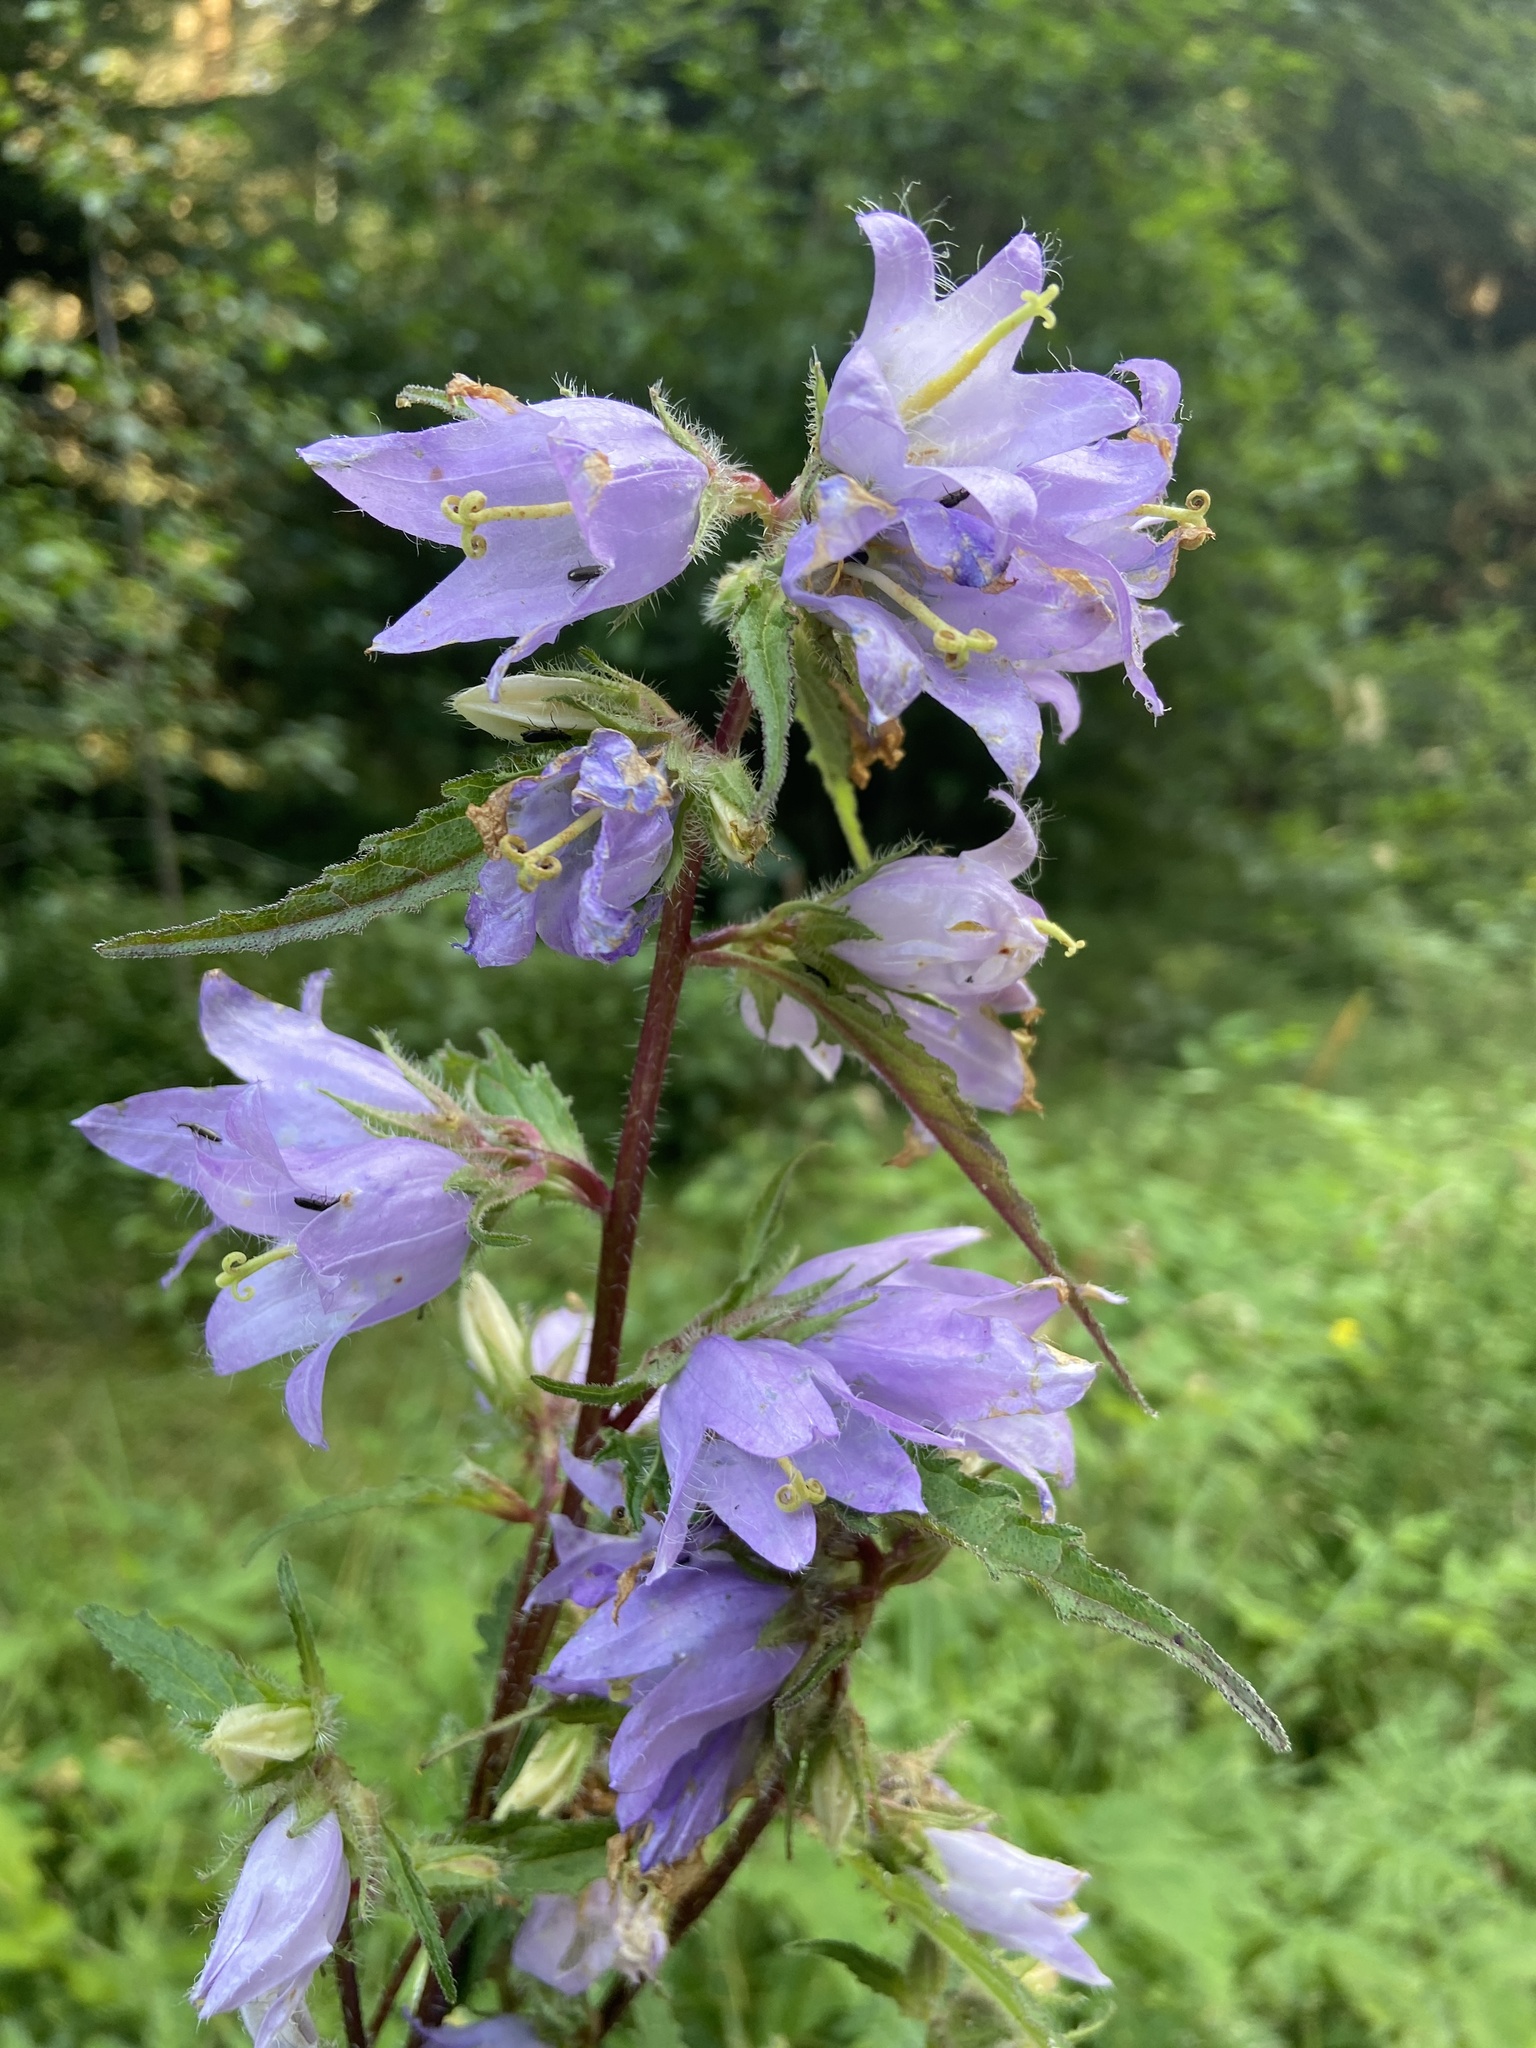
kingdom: Plantae
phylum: Tracheophyta
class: Magnoliopsida
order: Asterales
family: Campanulaceae
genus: Campanula
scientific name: Campanula trachelium
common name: Nettle-leaved bellflower
